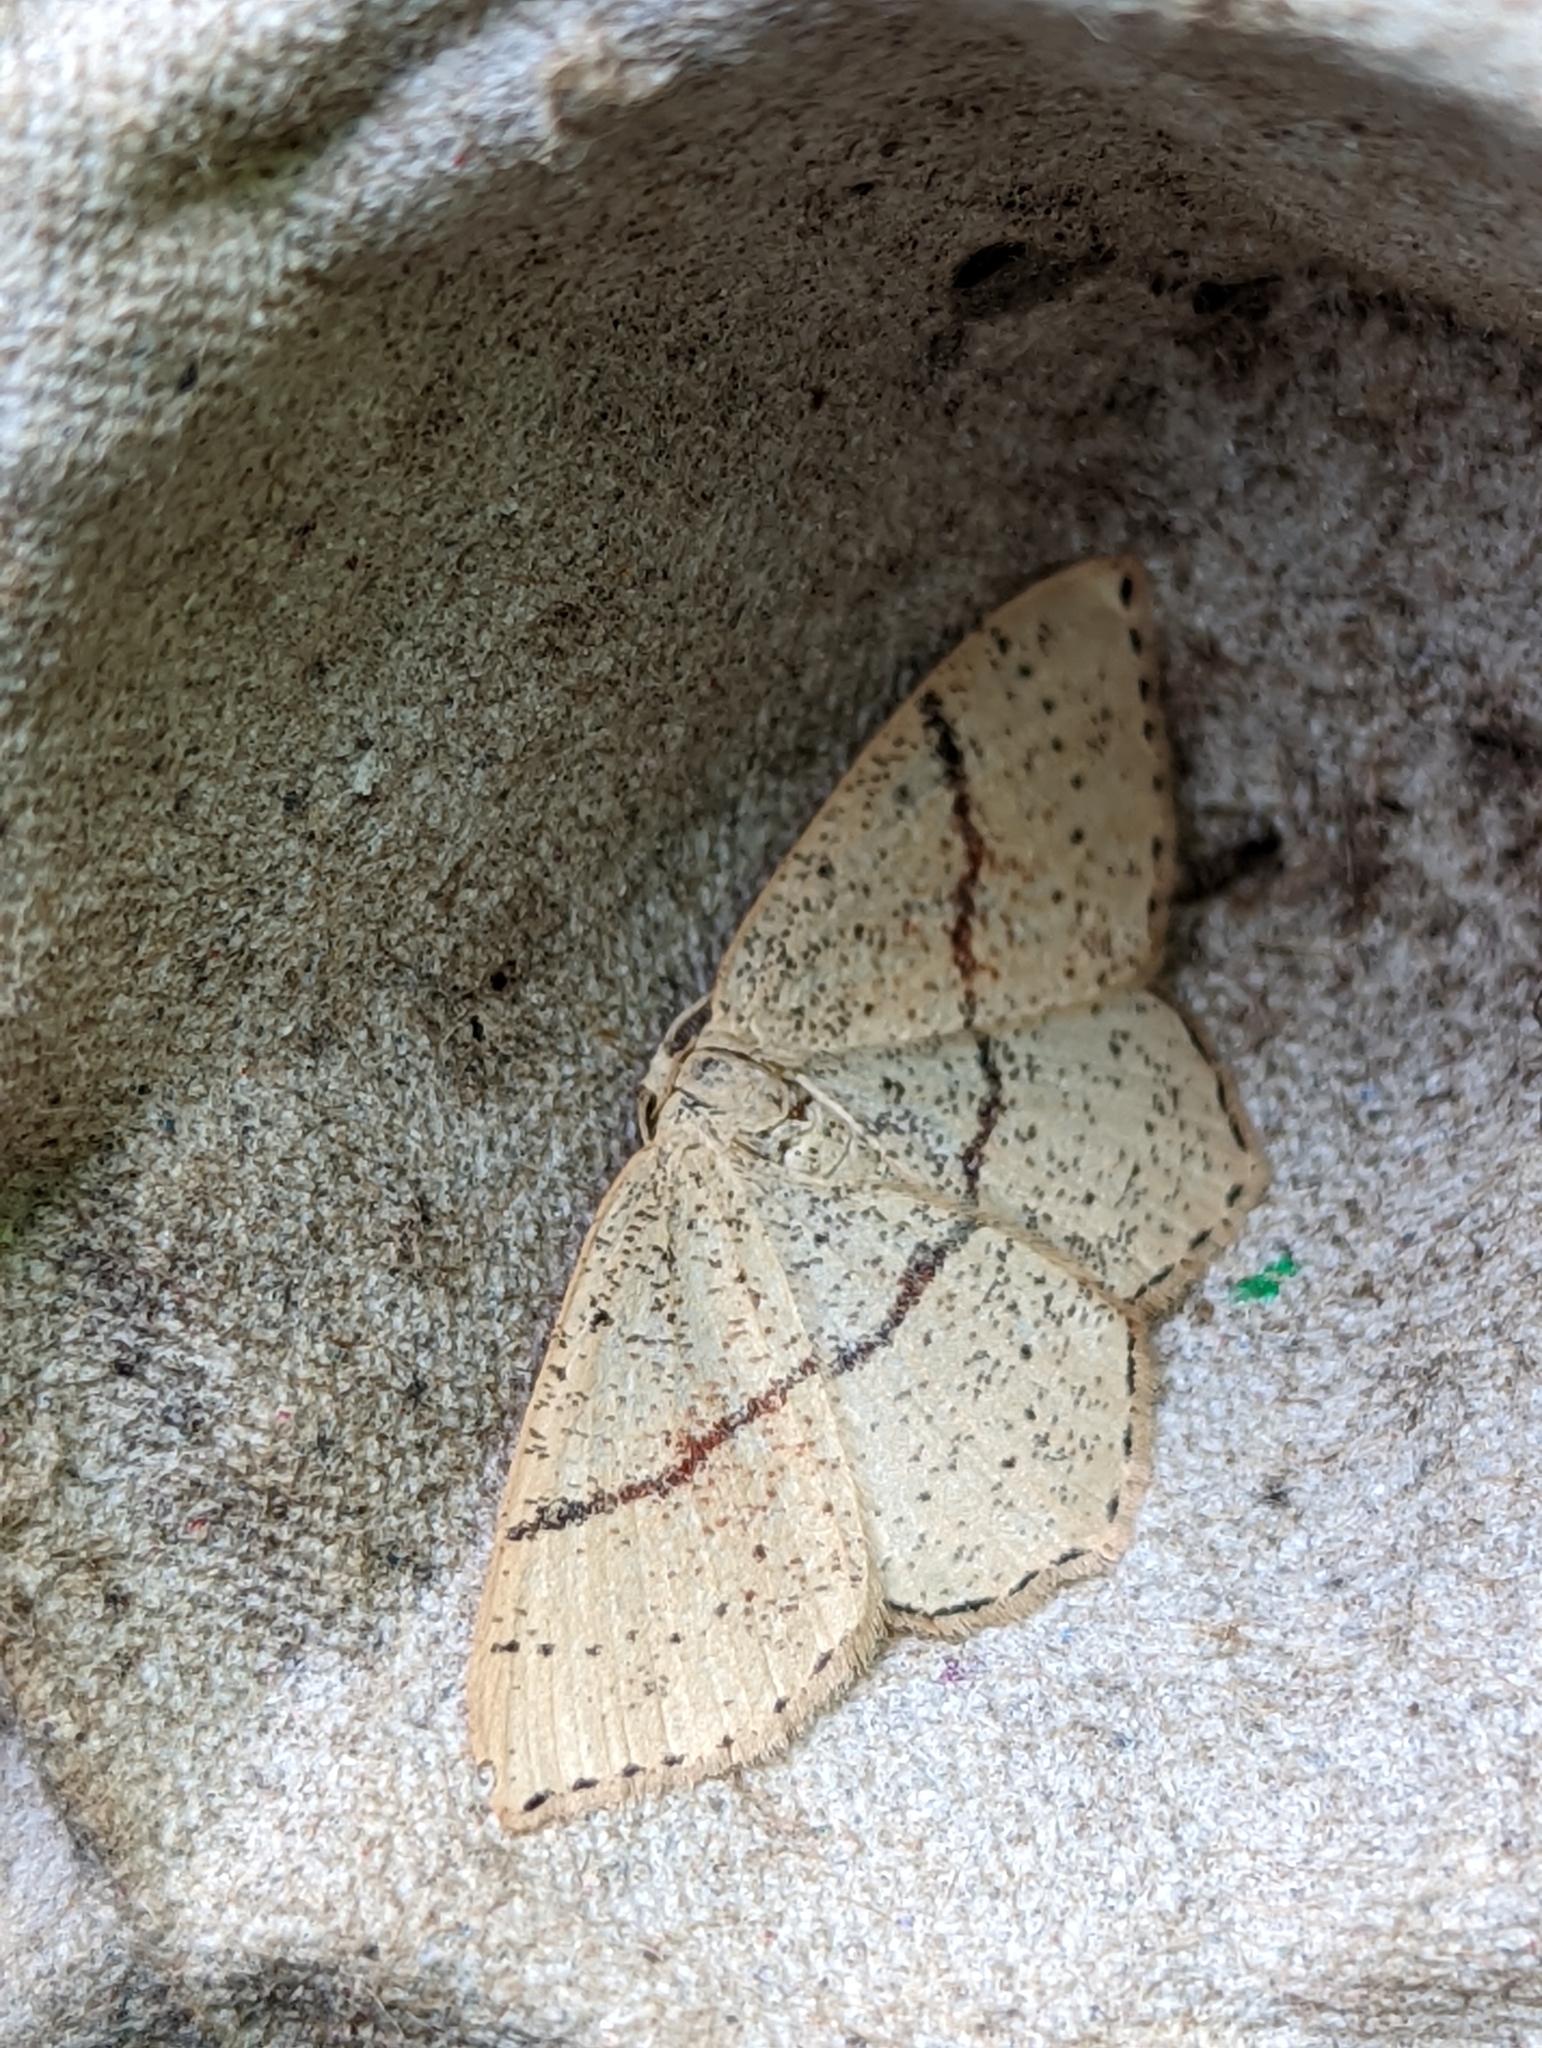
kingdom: Animalia
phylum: Arthropoda
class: Insecta
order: Lepidoptera
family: Geometridae
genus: Cyclophora
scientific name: Cyclophora punctaria
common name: Maiden's blush
